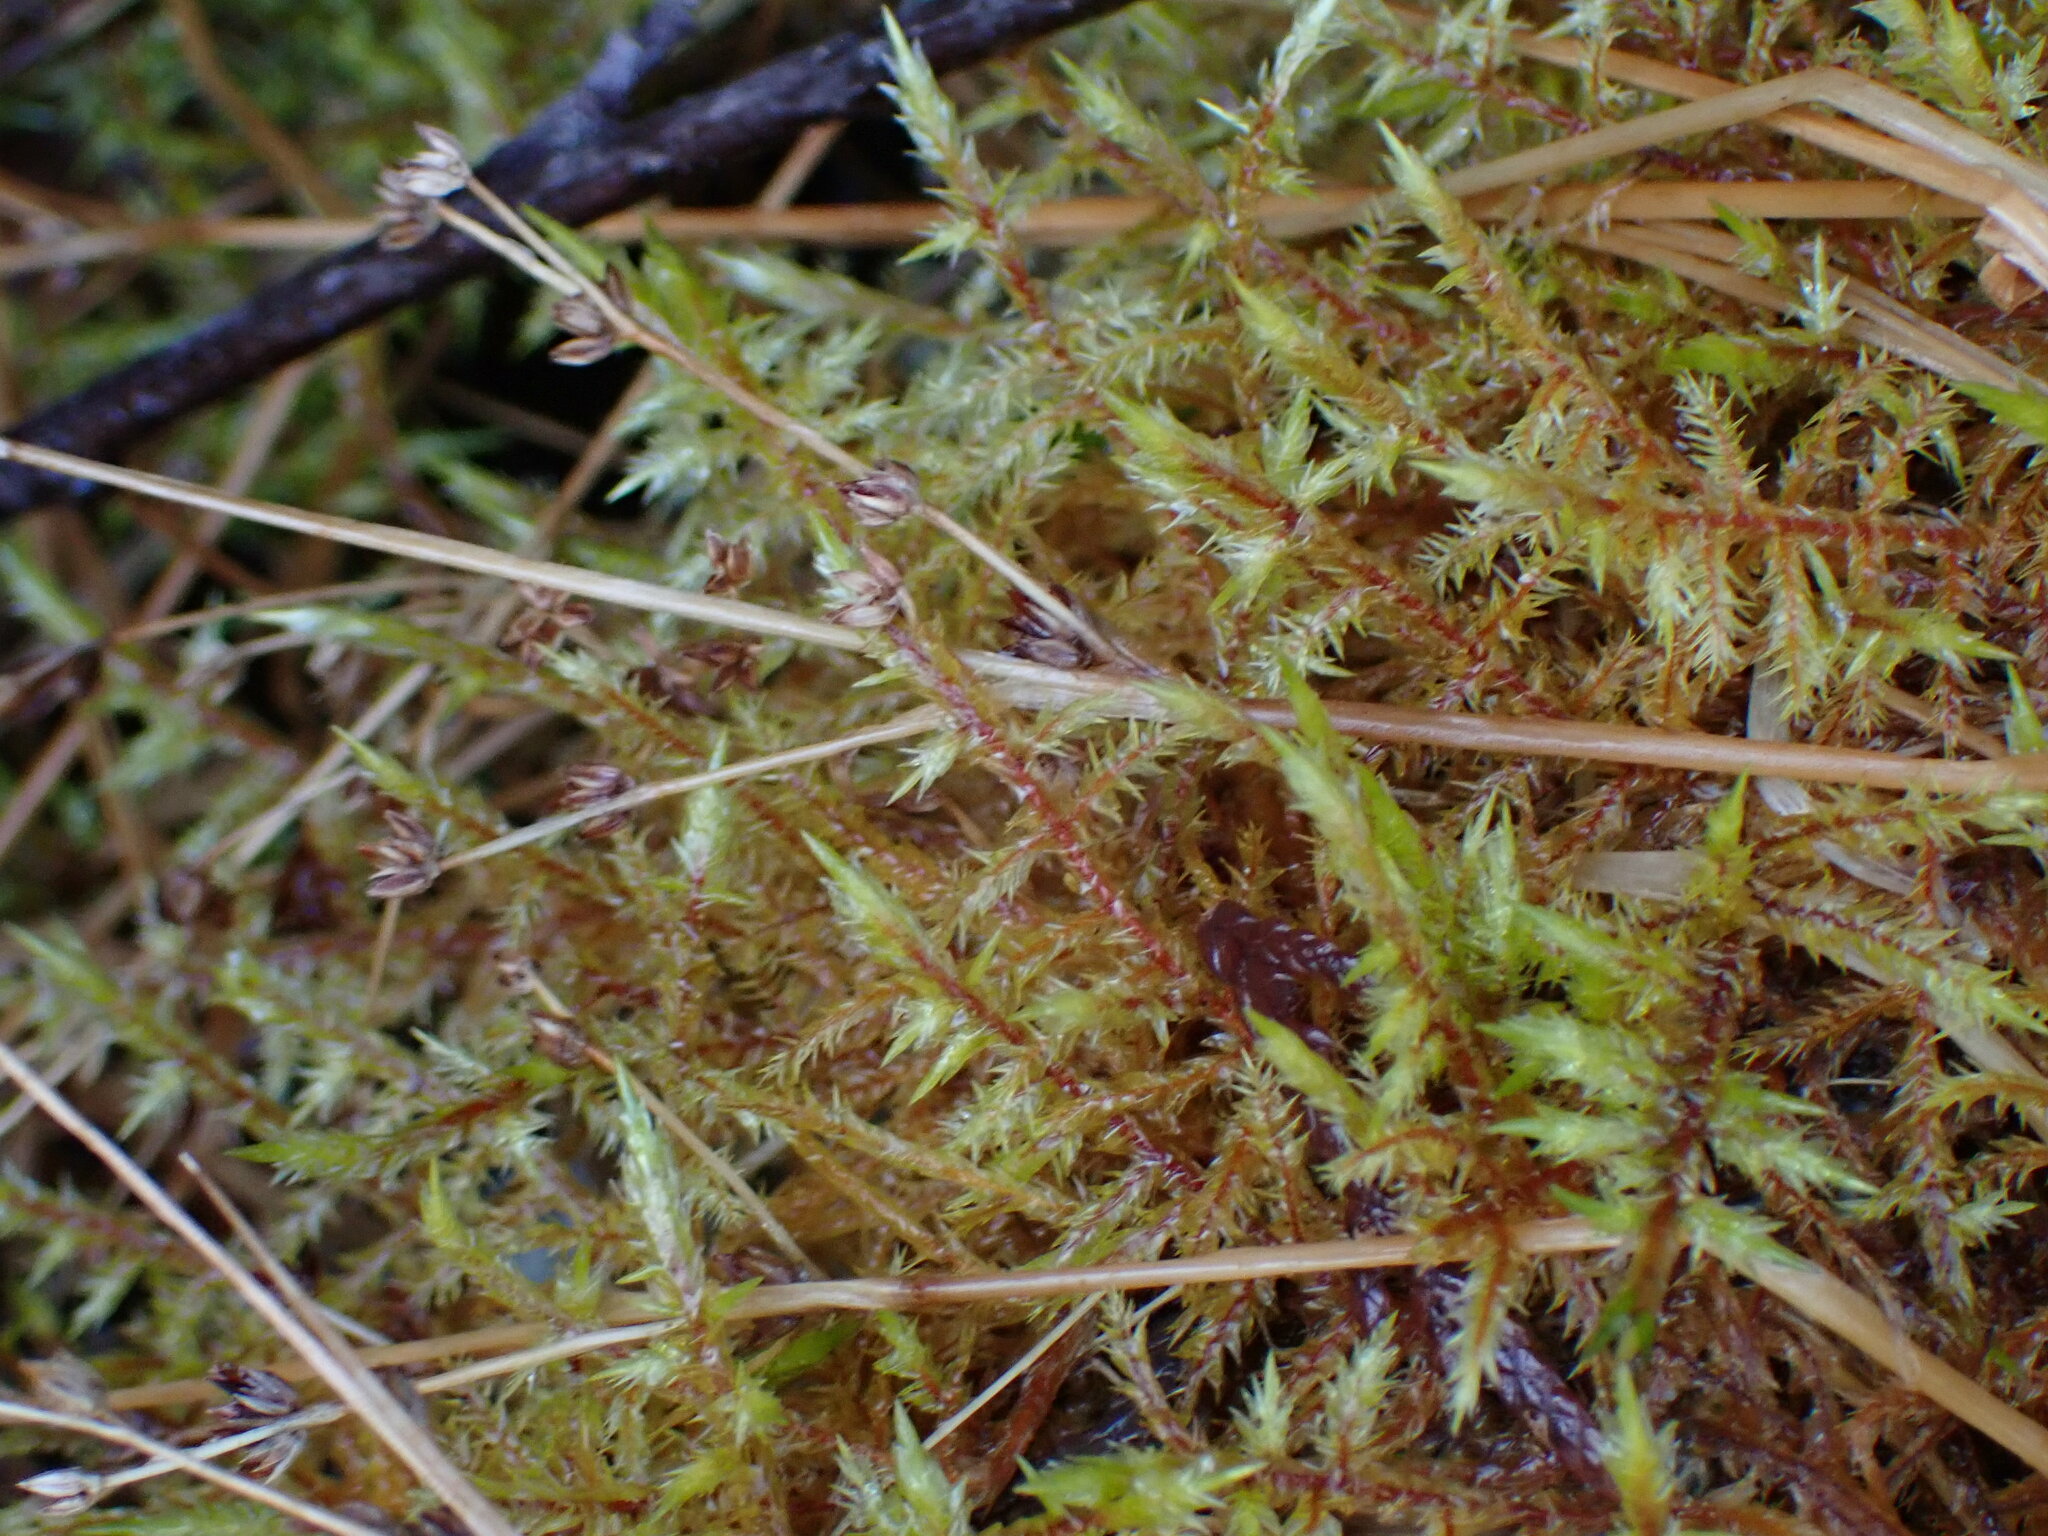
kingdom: Plantae
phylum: Bryophyta
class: Bryopsida
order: Hypnales
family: Pylaisiaceae
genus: Calliergonella
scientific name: Calliergonella cuspidata
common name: Common large wetland moss
